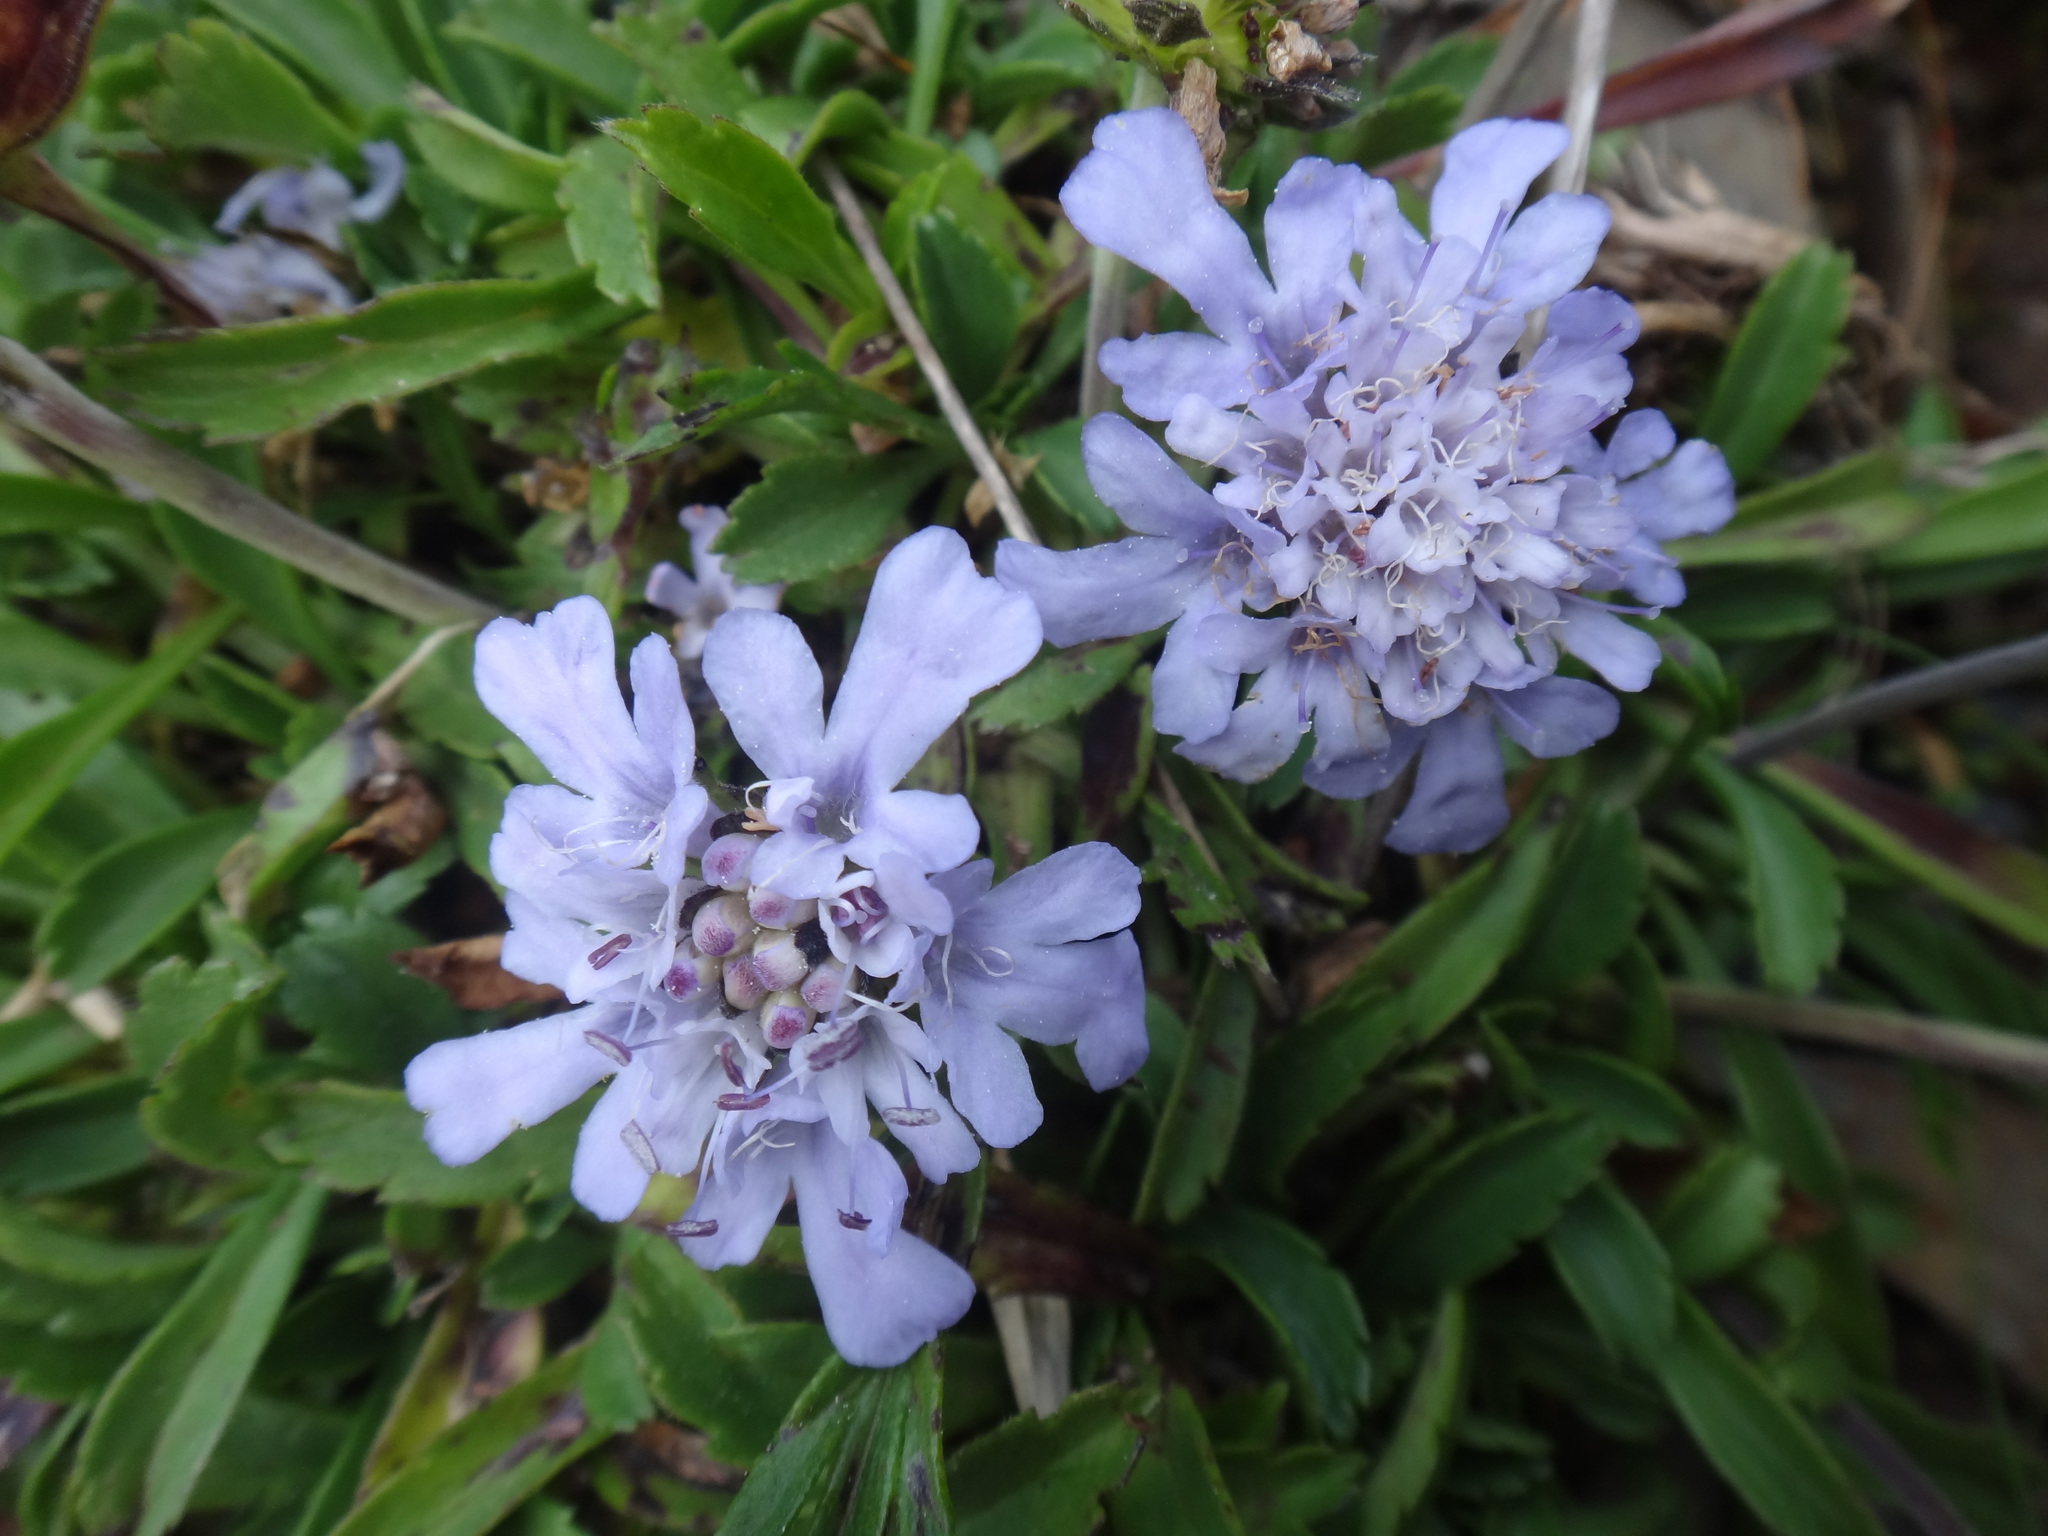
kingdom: Plantae
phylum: Tracheophyta
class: Magnoliopsida
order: Dipsacales
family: Caprifoliaceae
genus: Scabiosa
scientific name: Scabiosa lacerifolia
